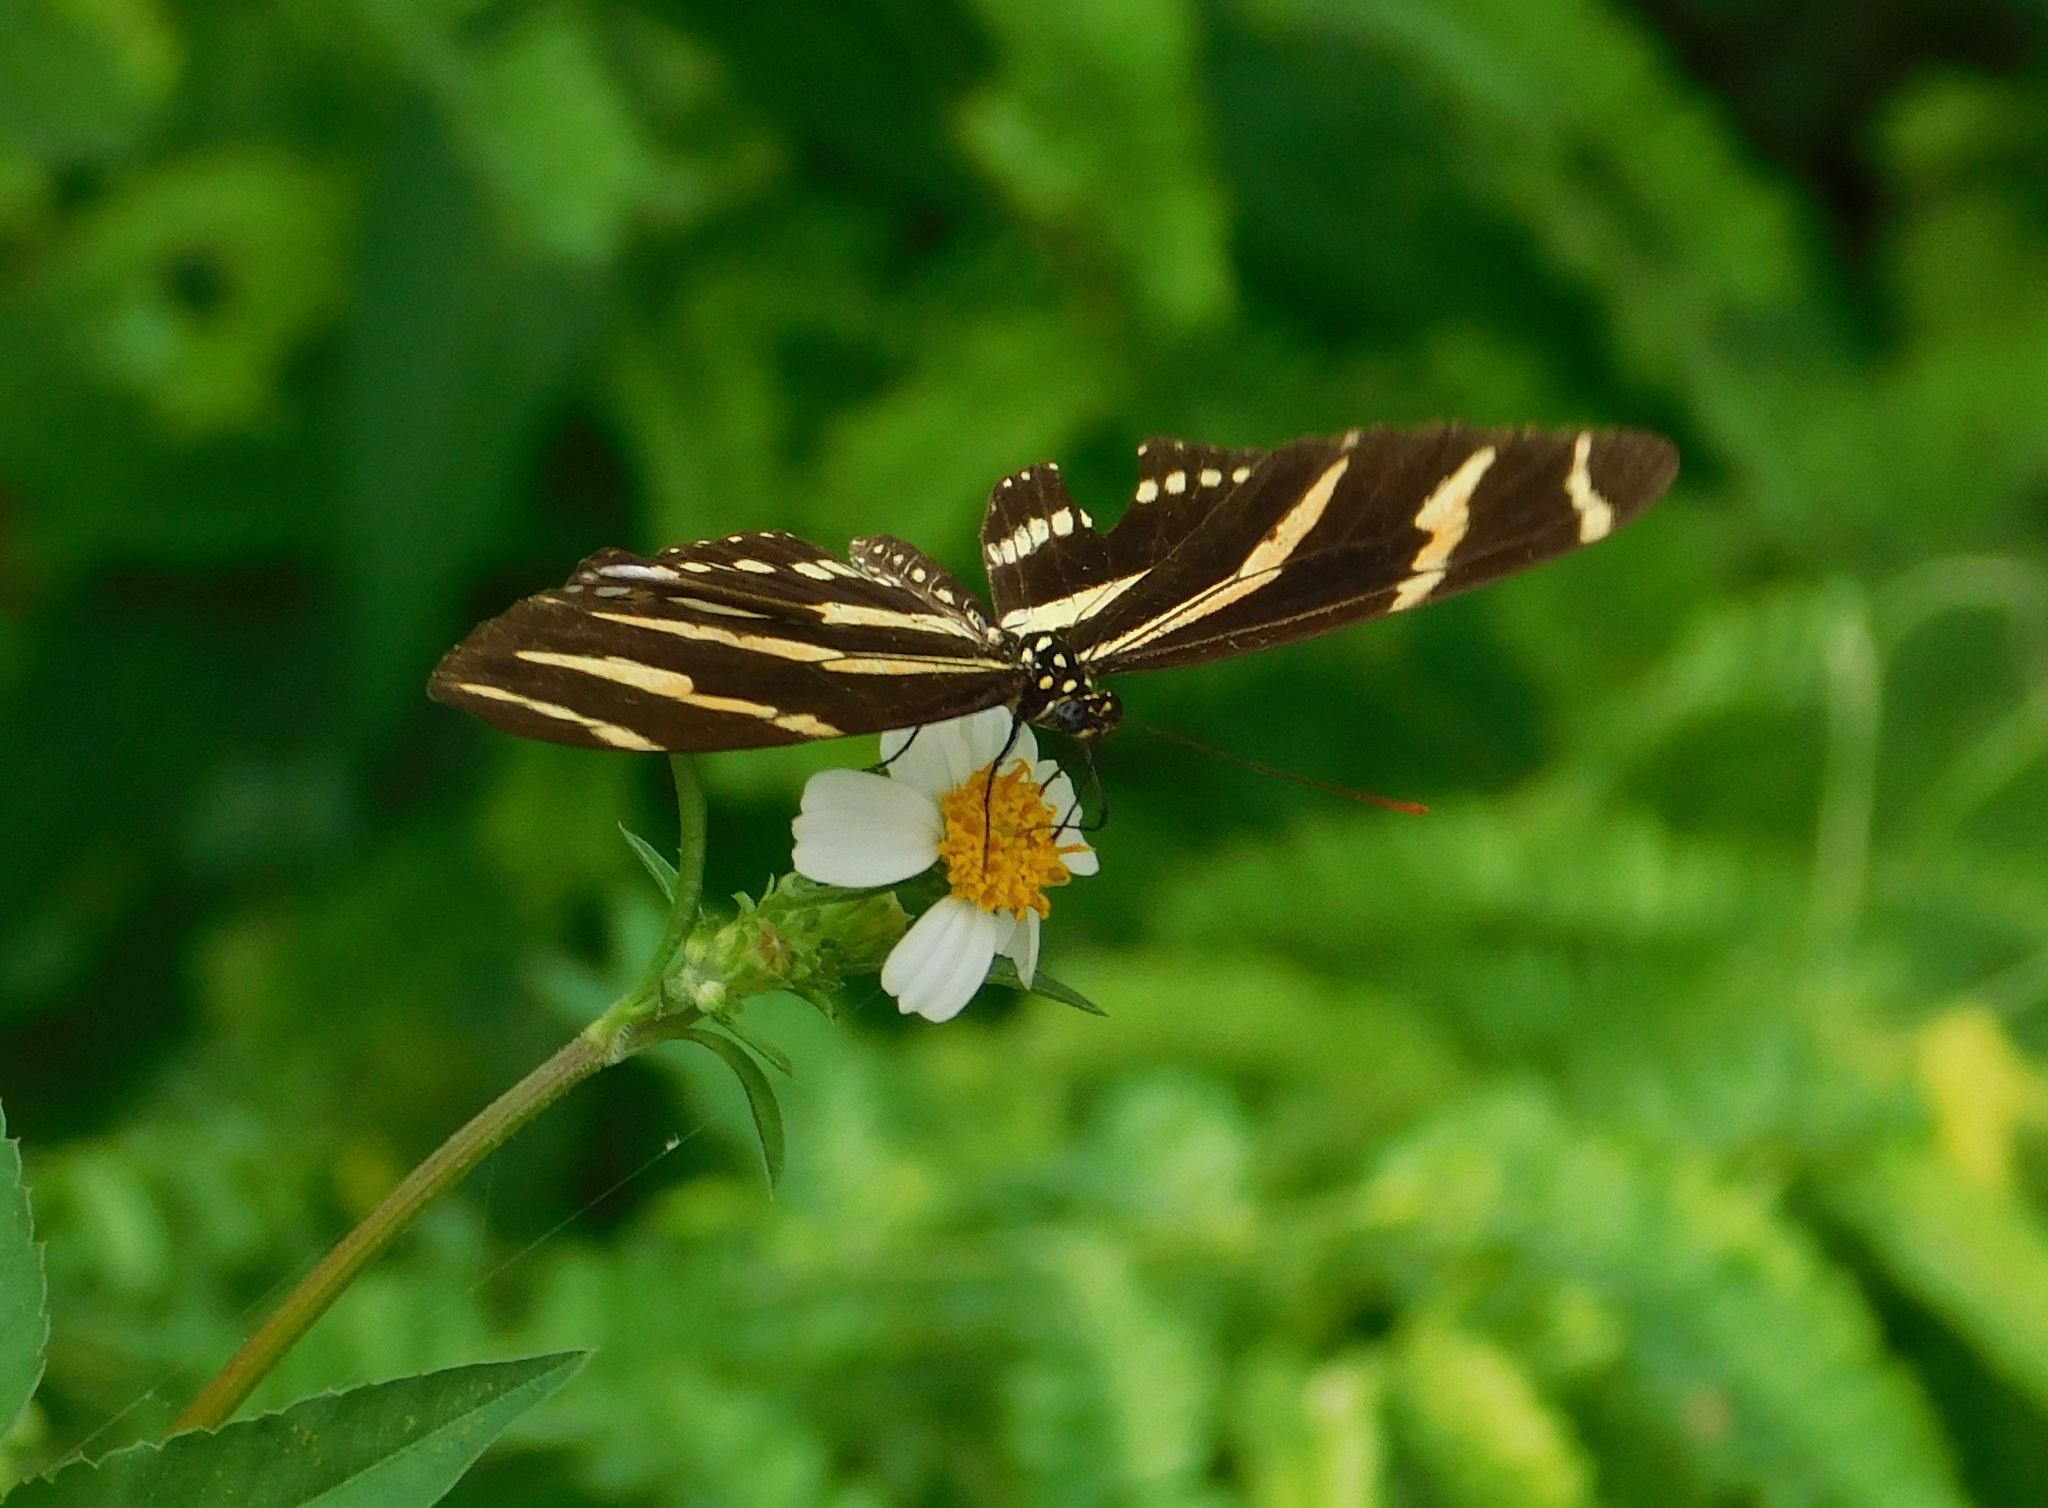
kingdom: Animalia
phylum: Arthropoda
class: Insecta
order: Lepidoptera
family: Nymphalidae
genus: Heliconius
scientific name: Heliconius charithonia
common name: Zebra long wing
